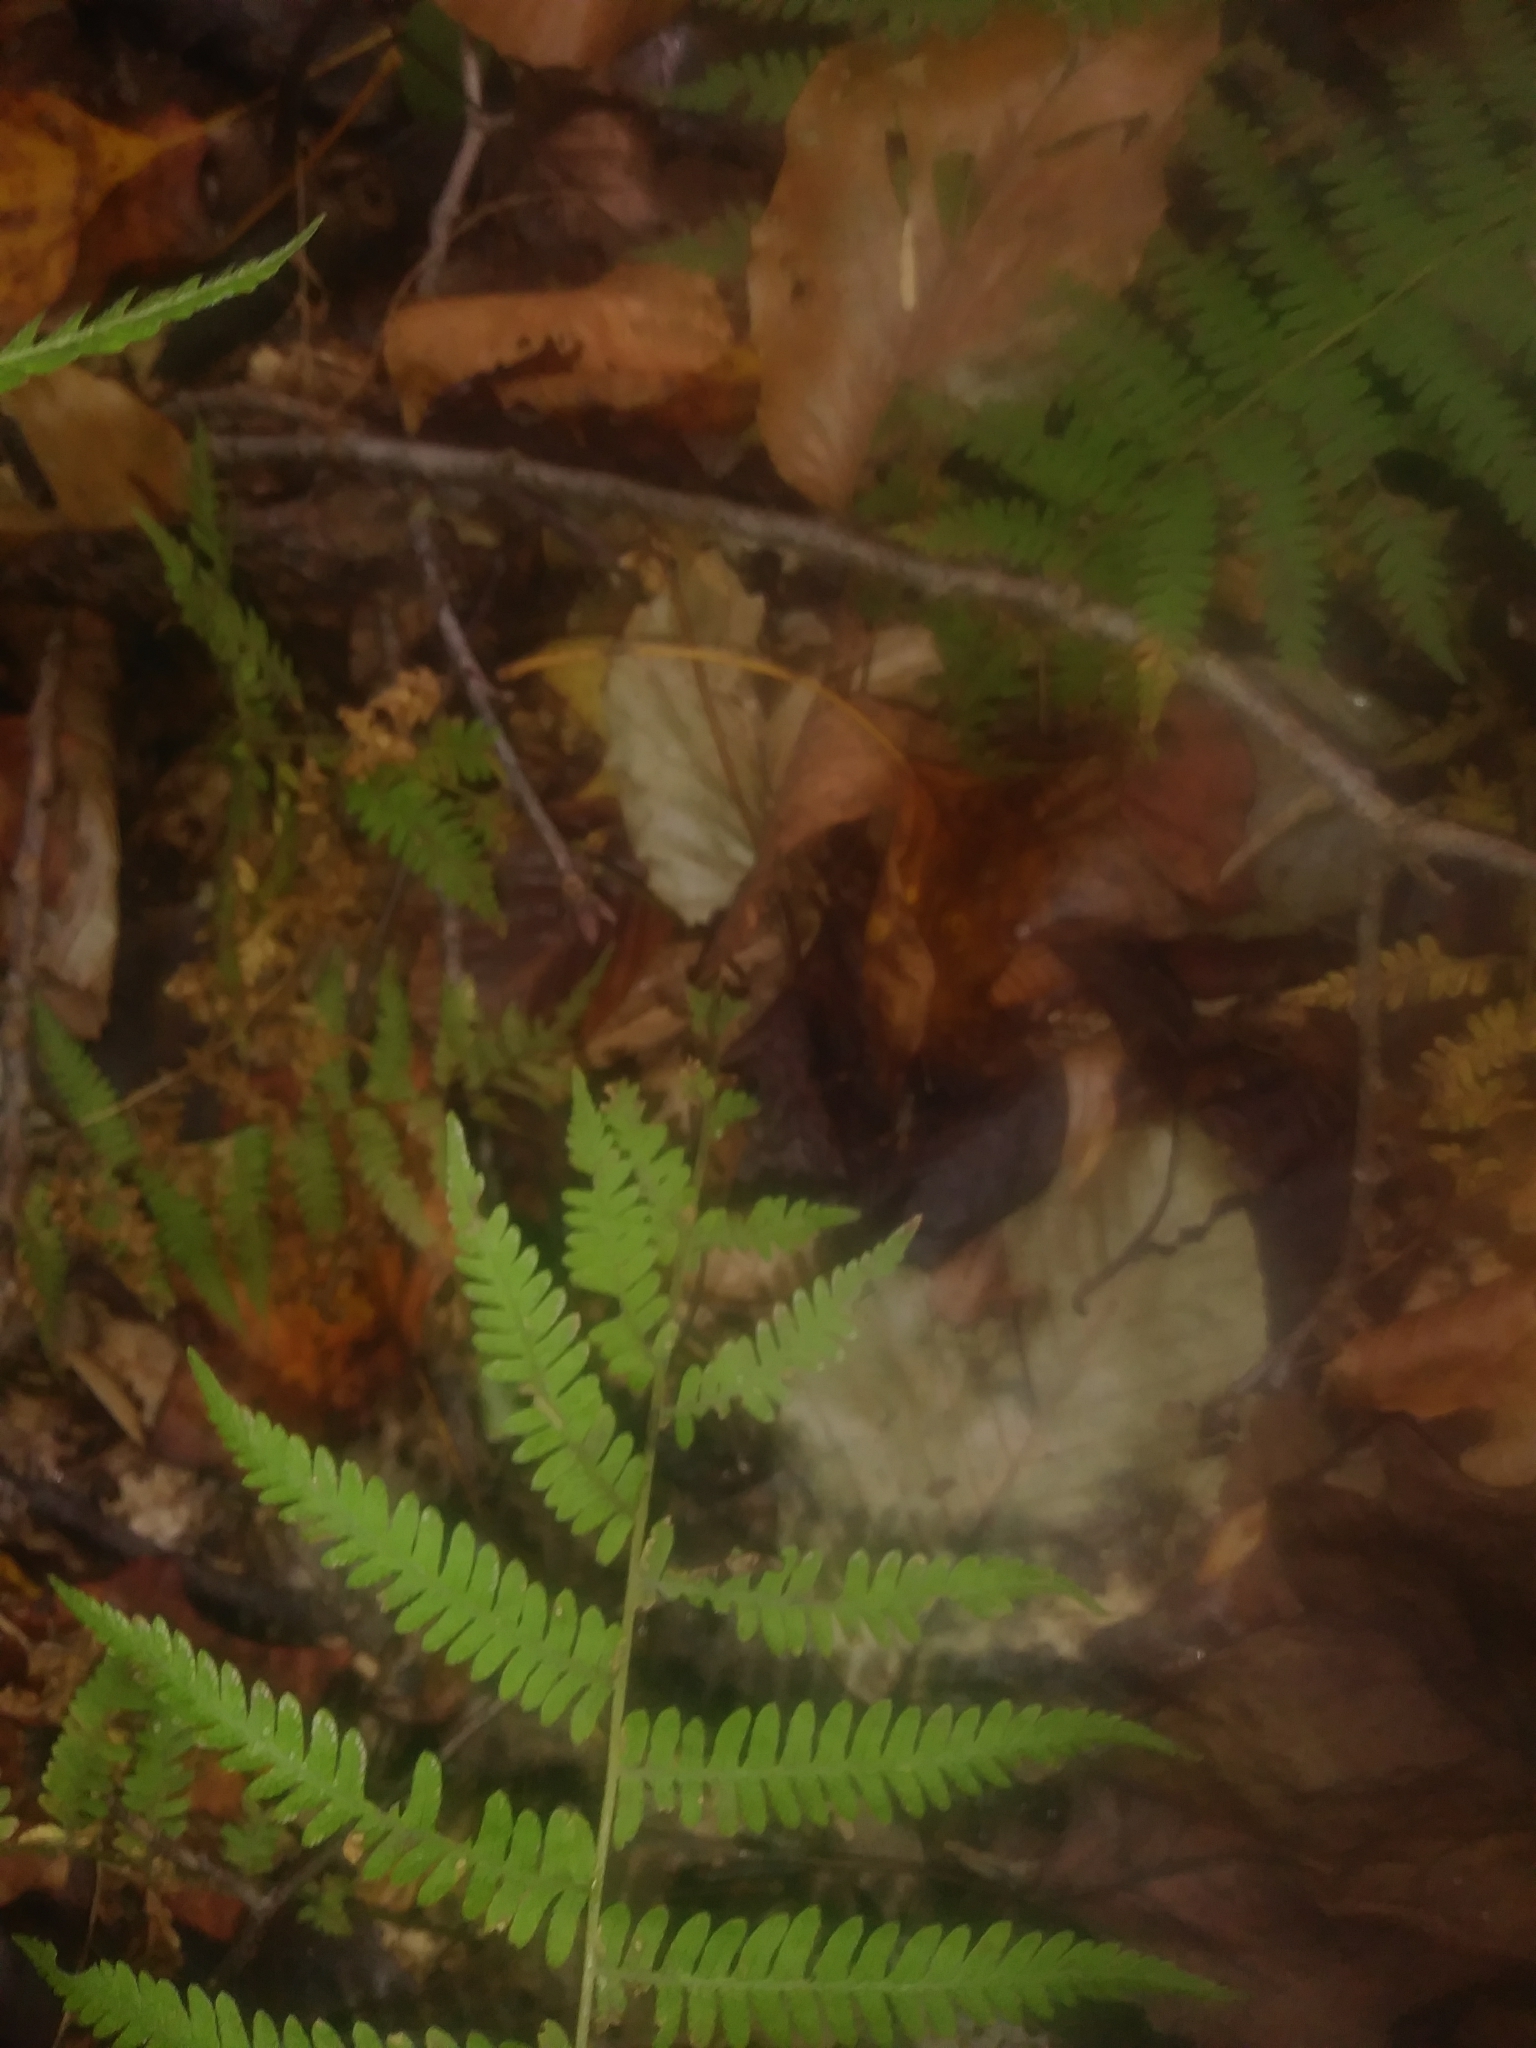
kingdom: Plantae
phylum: Tracheophyta
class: Polypodiopsida
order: Polypodiales
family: Thelypteridaceae
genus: Amauropelta
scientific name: Amauropelta noveboracensis
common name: New york fern
